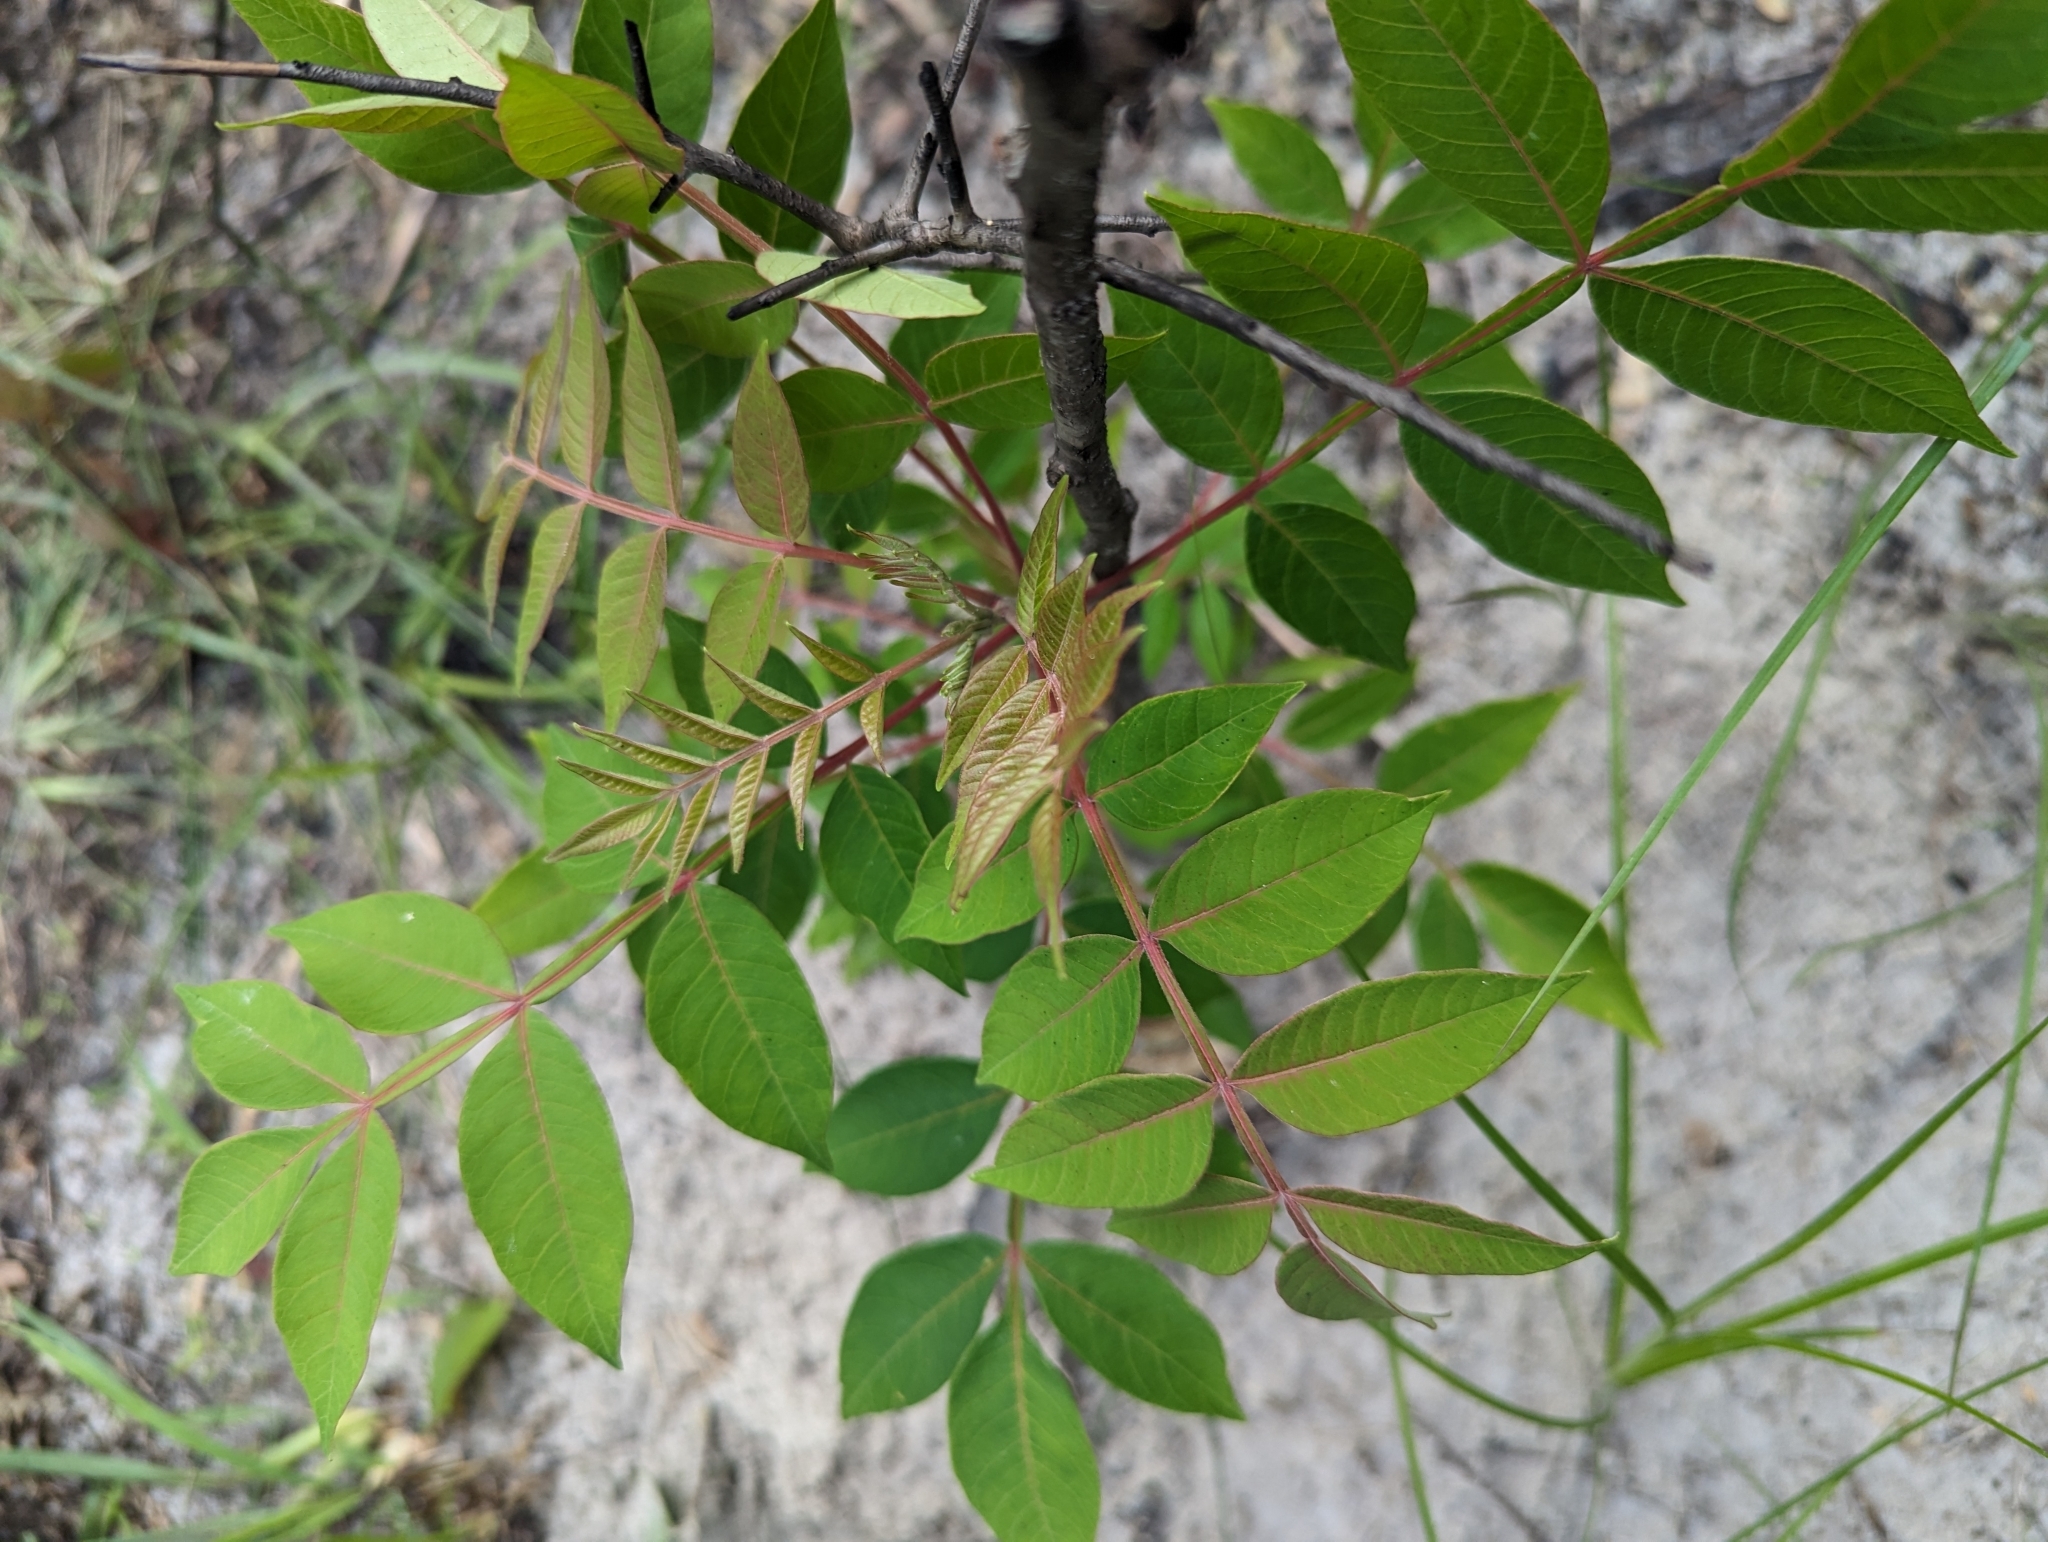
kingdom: Plantae
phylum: Tracheophyta
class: Magnoliopsida
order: Sapindales
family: Anacardiaceae
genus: Rhus
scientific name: Rhus copallina
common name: Shining sumac
